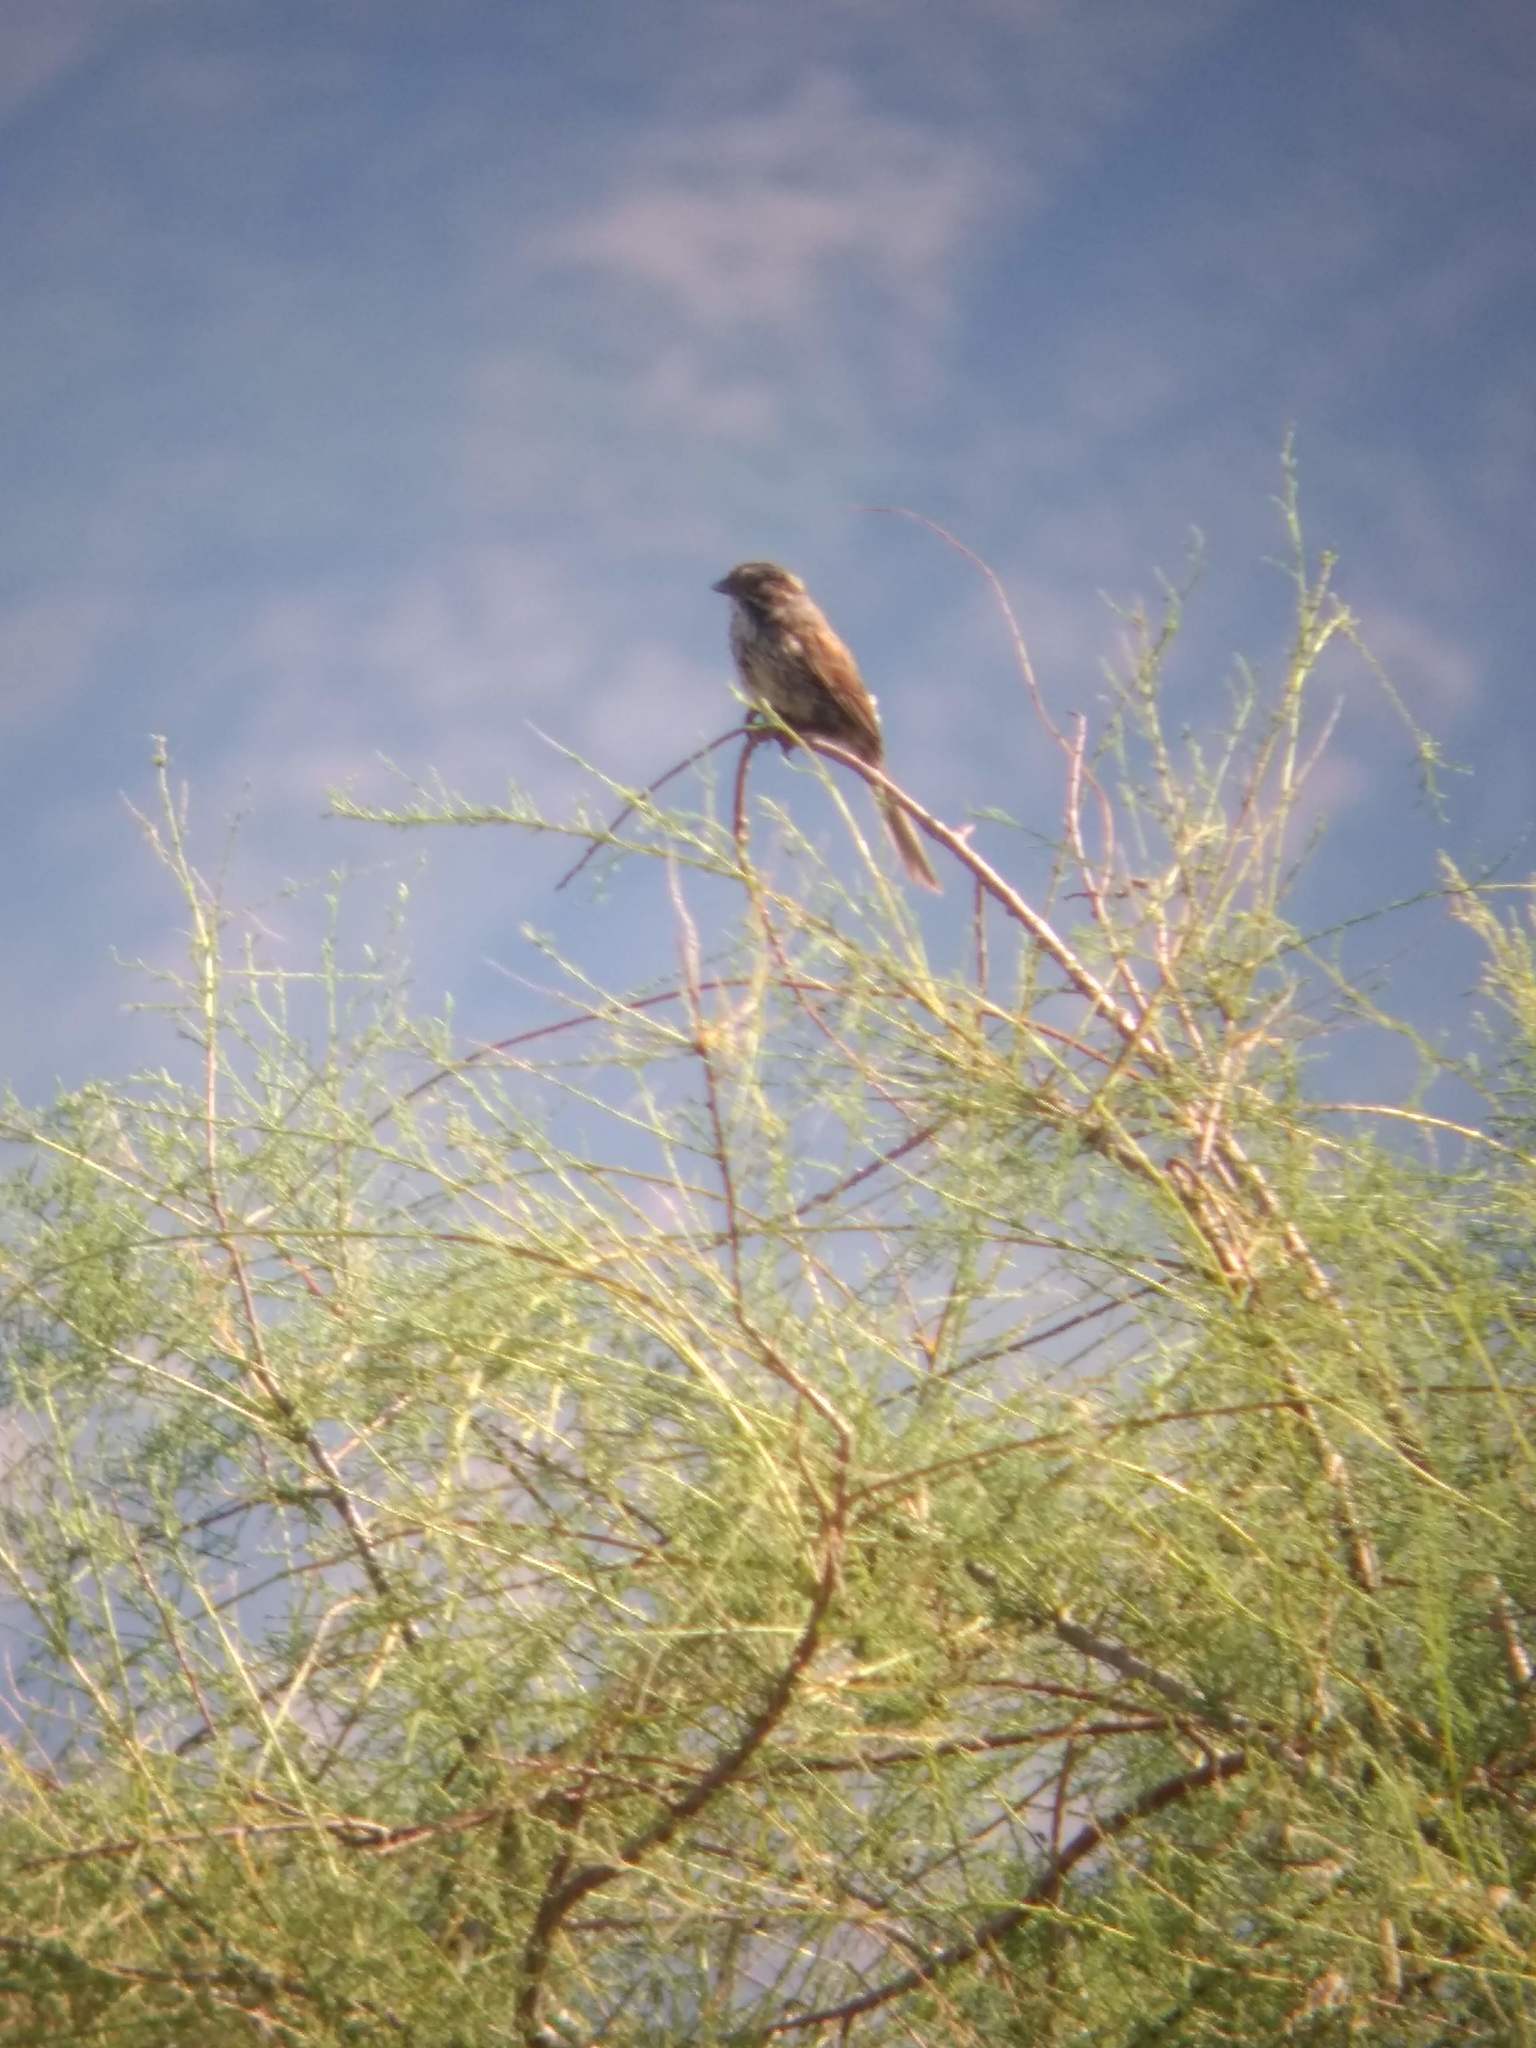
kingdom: Animalia
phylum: Chordata
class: Aves
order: Passeriformes
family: Passerellidae
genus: Melospiza
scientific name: Melospiza melodia
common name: Song sparrow
